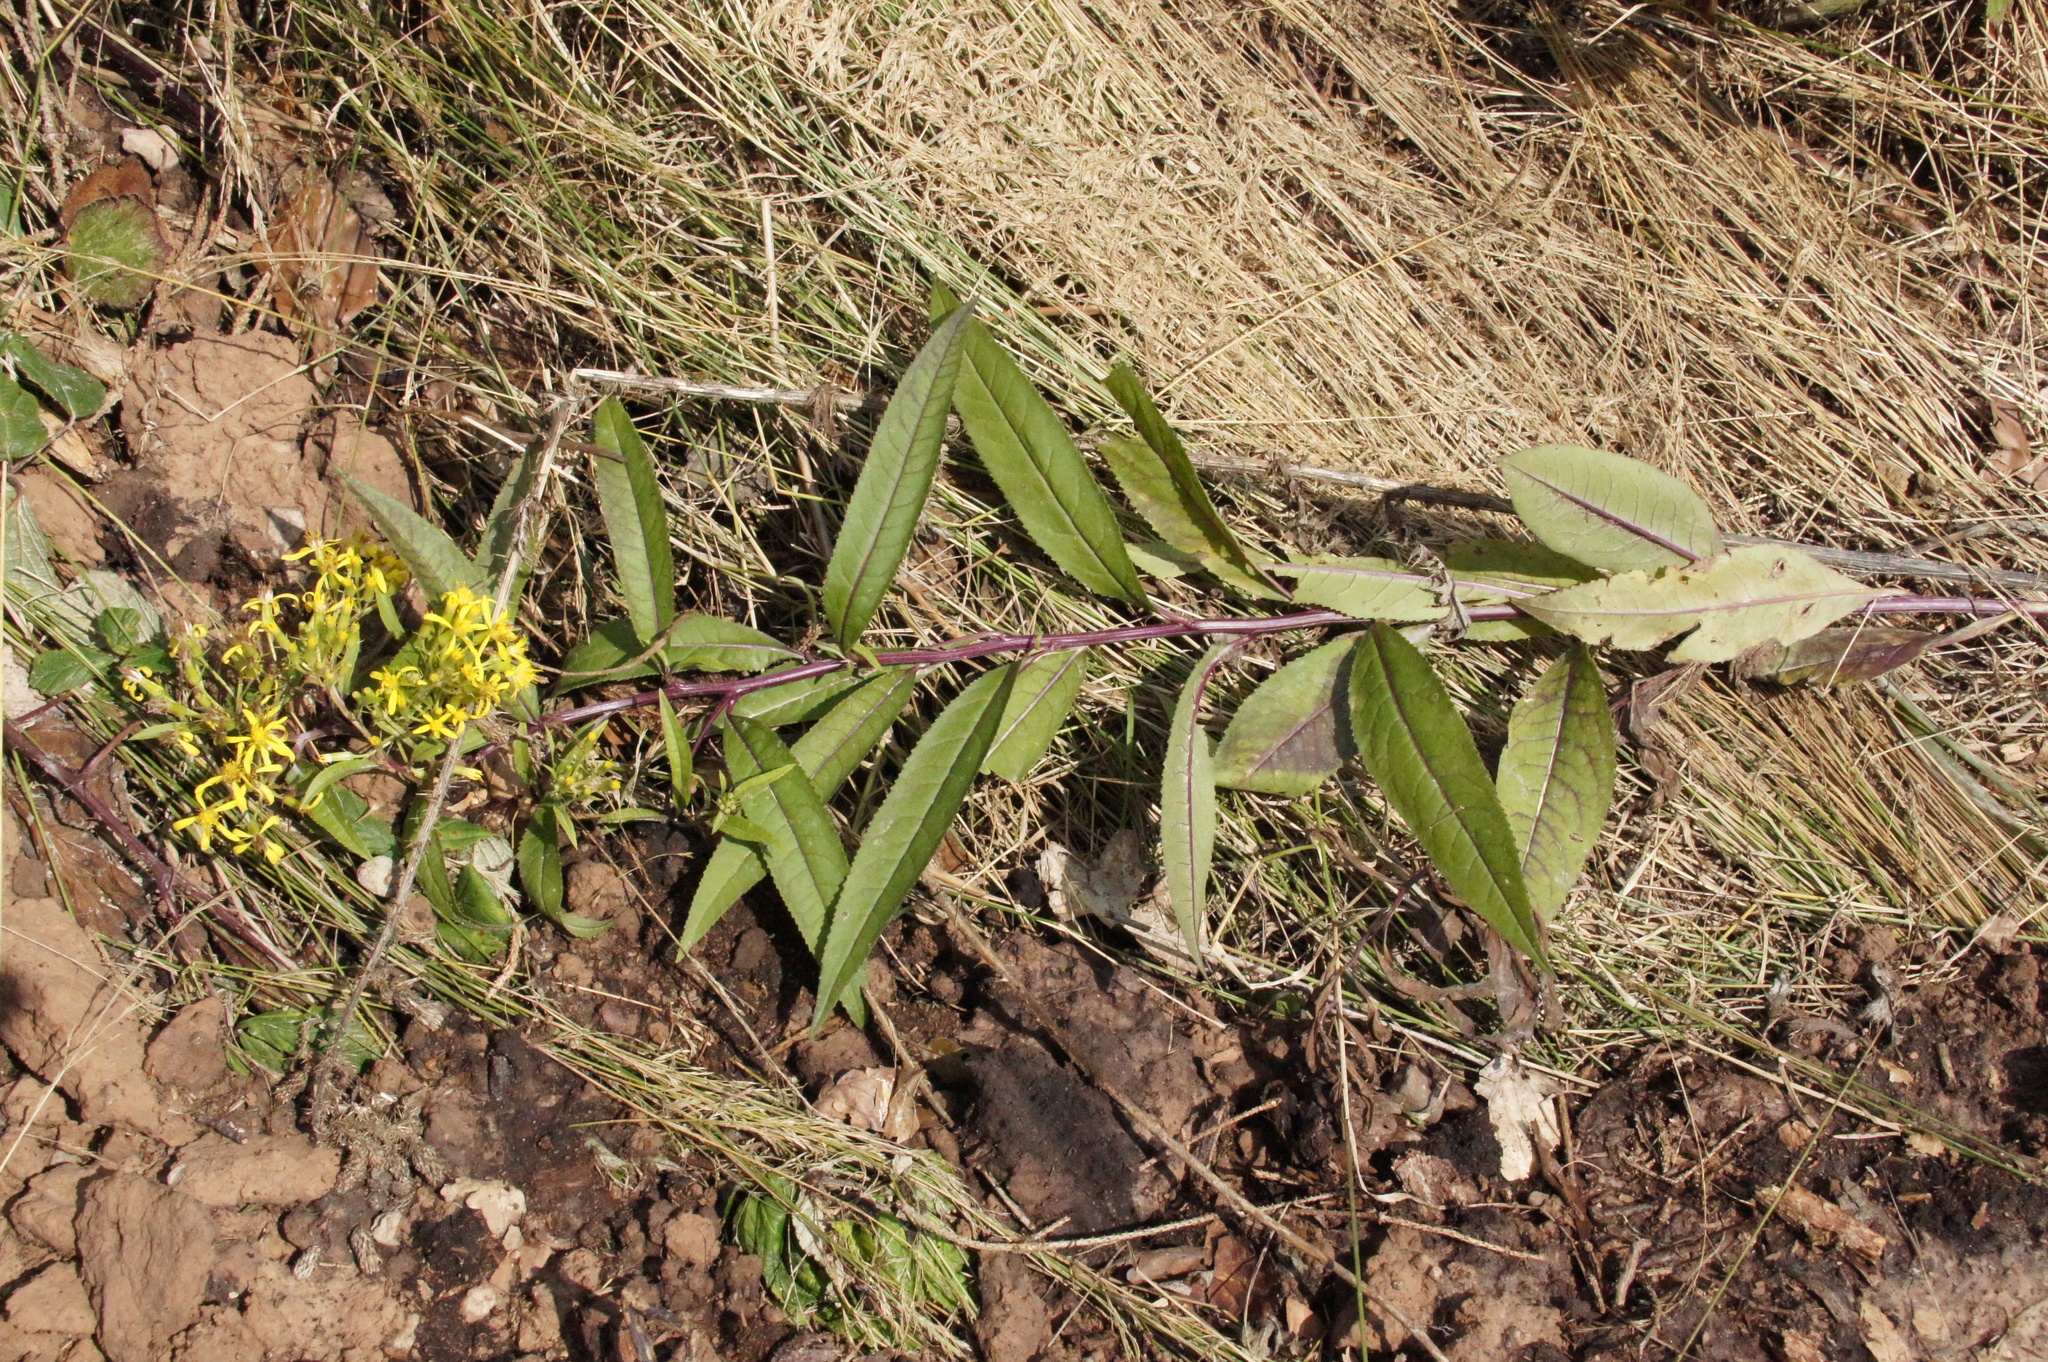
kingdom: Plantae
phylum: Tracheophyta
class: Magnoliopsida
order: Asterales
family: Asteraceae
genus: Senecio
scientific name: Senecio ovatus
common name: Wood ragwort
